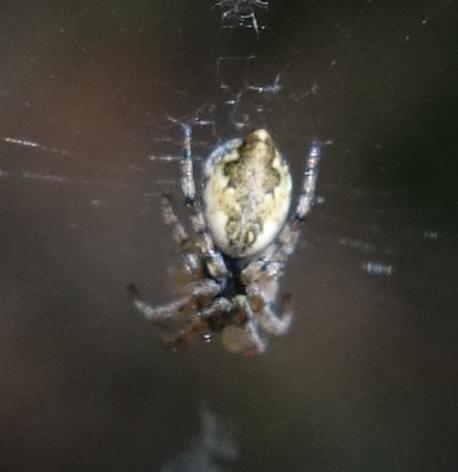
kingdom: Animalia
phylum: Arthropoda
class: Arachnida
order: Araneae
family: Araneidae
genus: Cyclosa
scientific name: Cyclosa conica
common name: Conical trashline orbweaver
